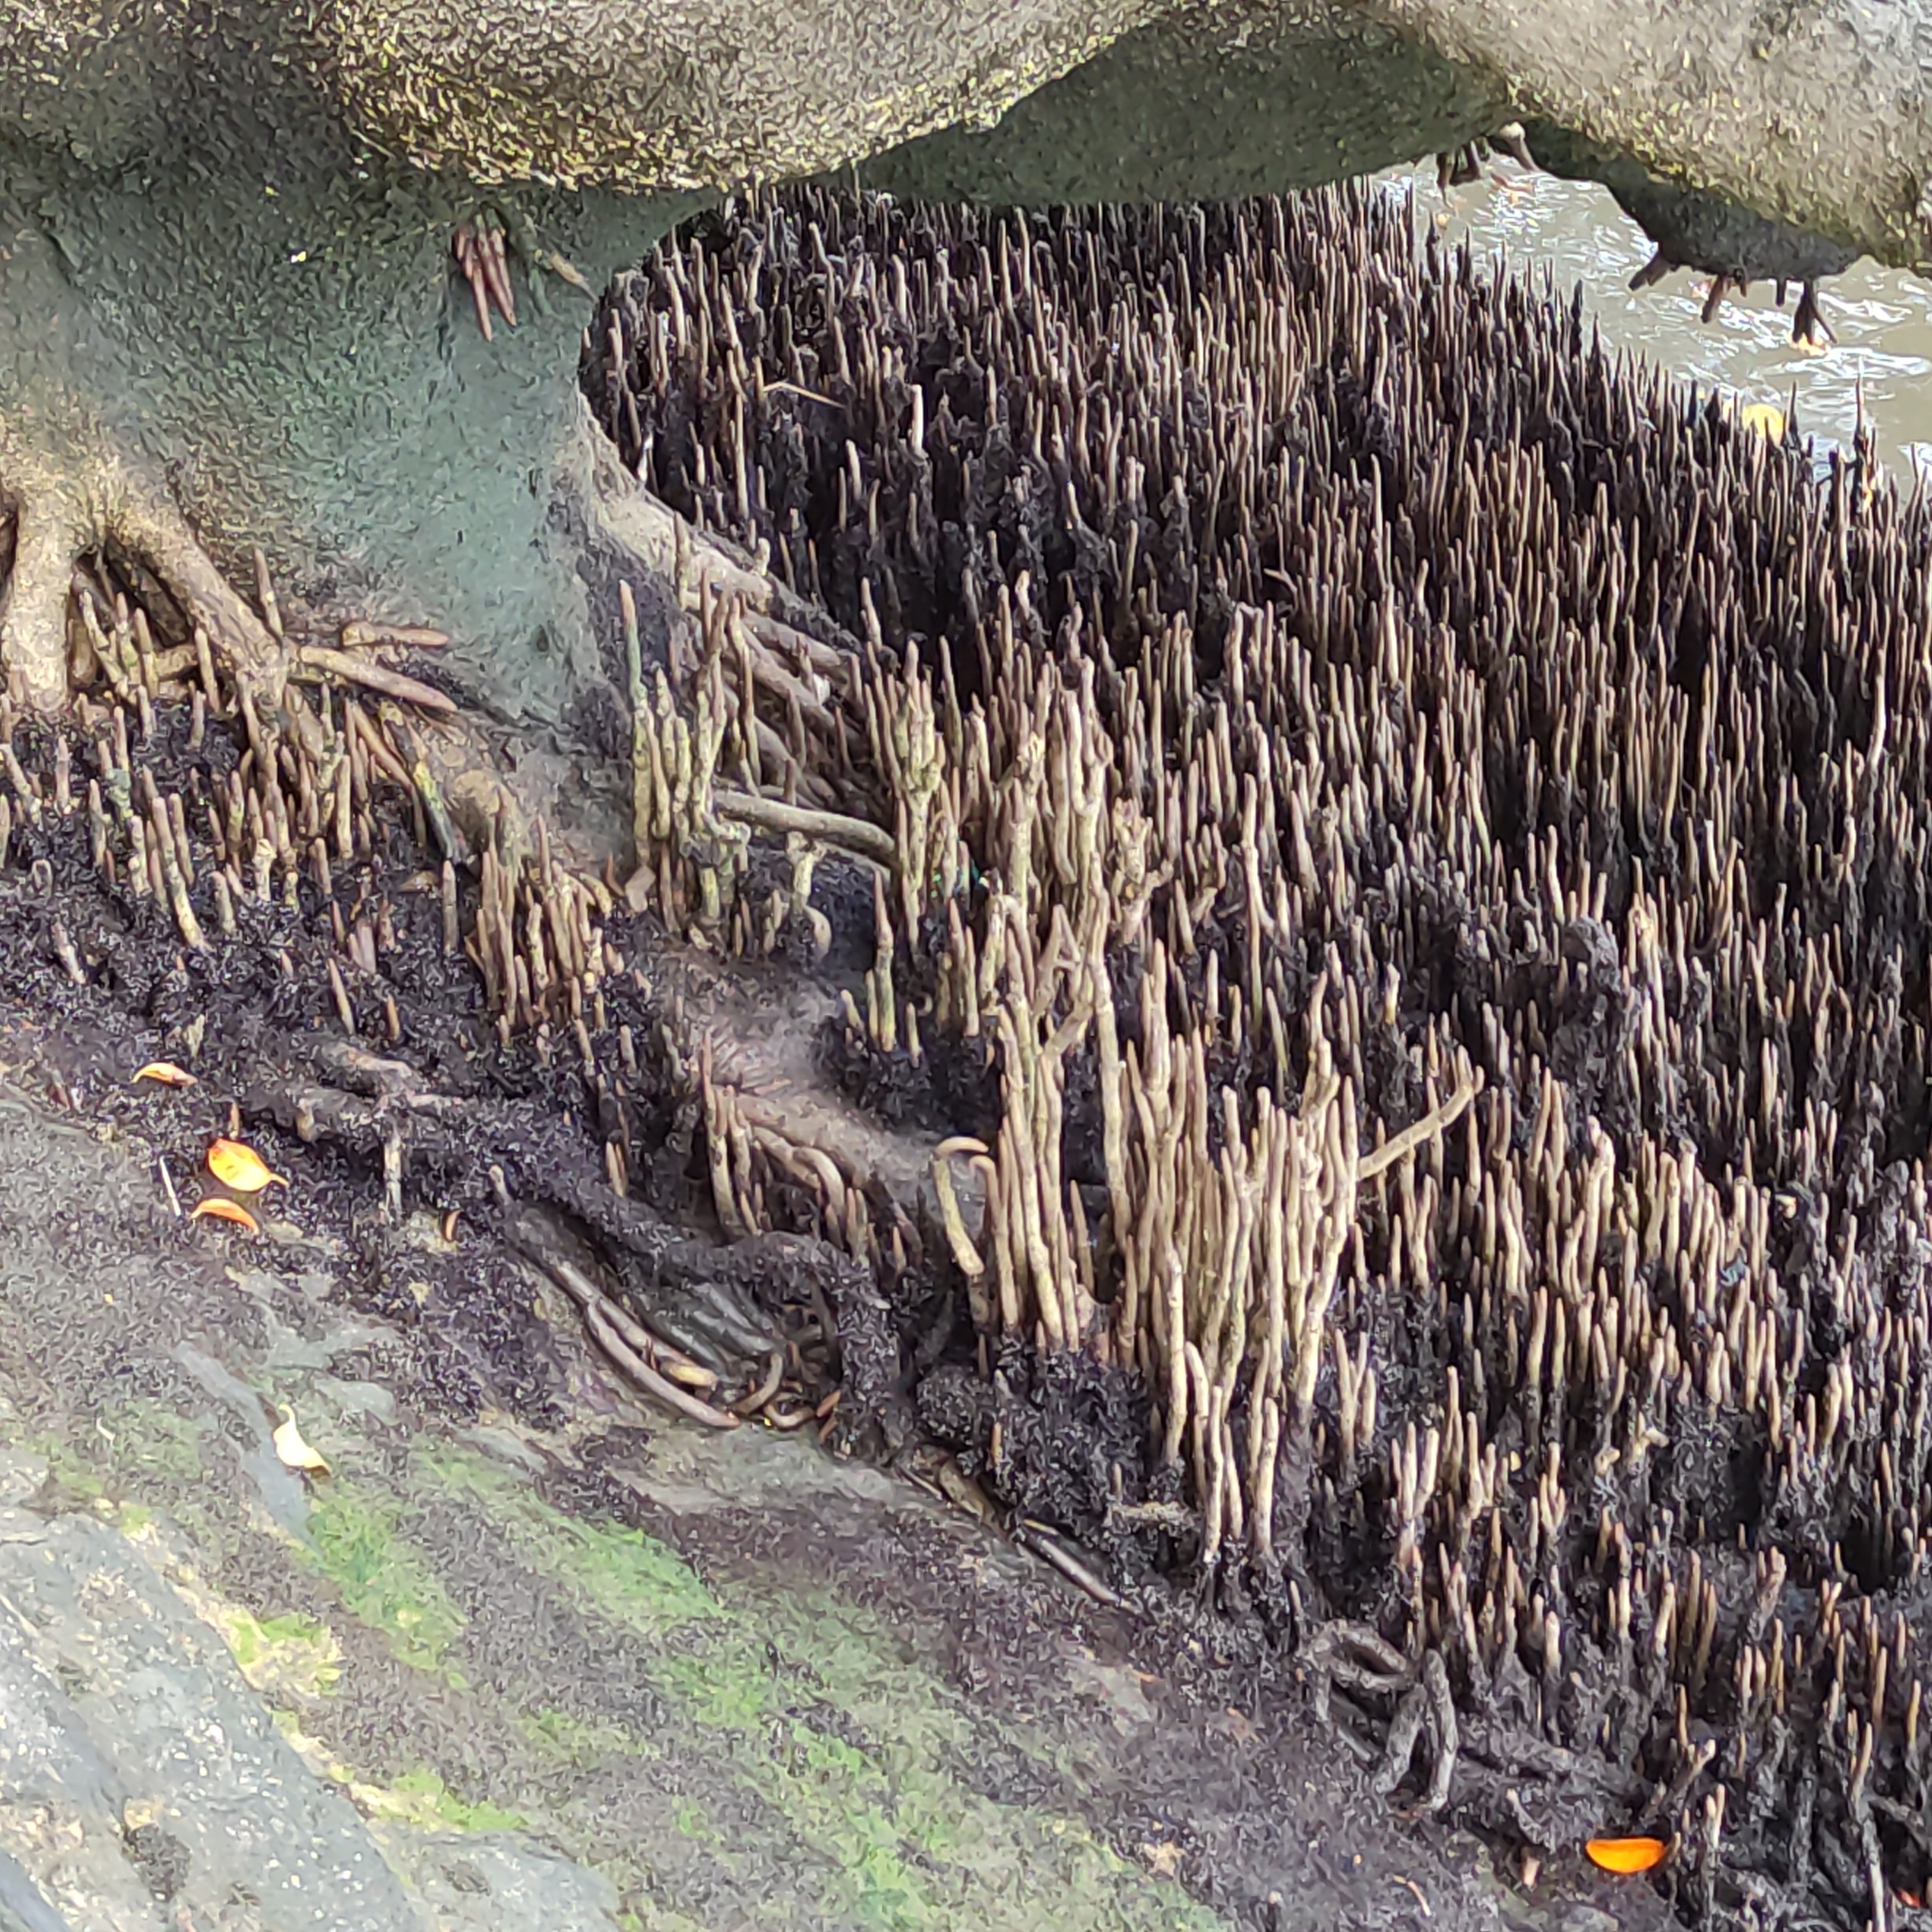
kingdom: Plantae
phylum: Tracheophyta
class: Magnoliopsida
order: Lamiales
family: Acanthaceae
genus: Avicennia
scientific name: Avicennia marina
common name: Gray mangrove
